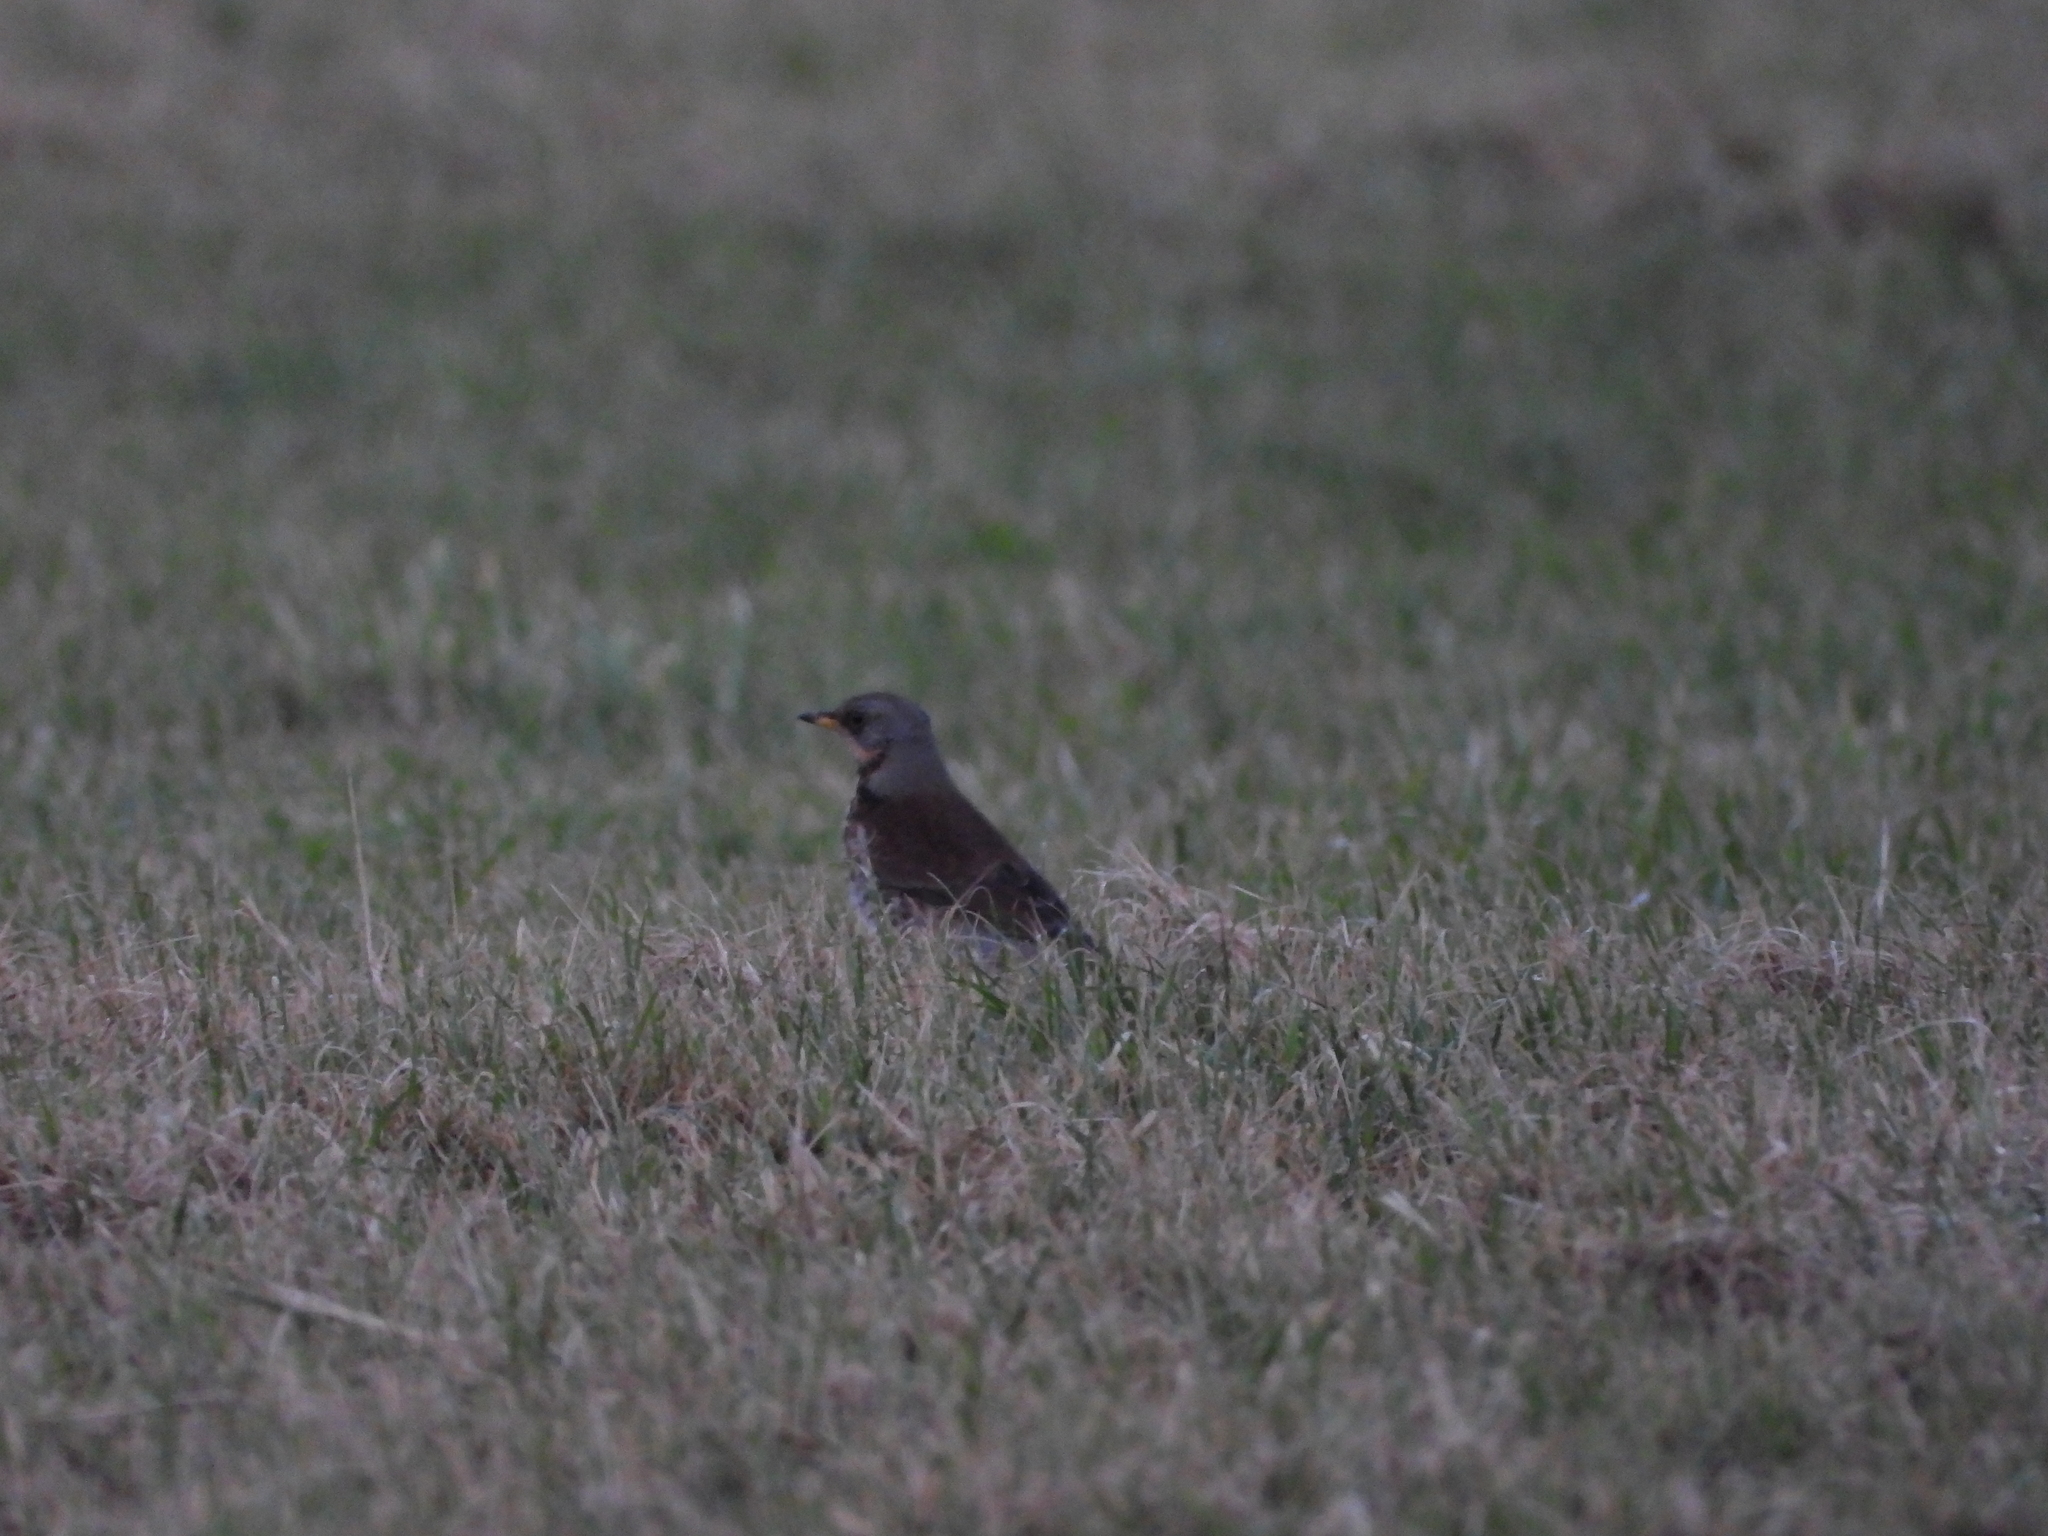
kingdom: Animalia
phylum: Chordata
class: Aves
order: Passeriformes
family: Turdidae
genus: Turdus
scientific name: Turdus pilaris
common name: Fieldfare
